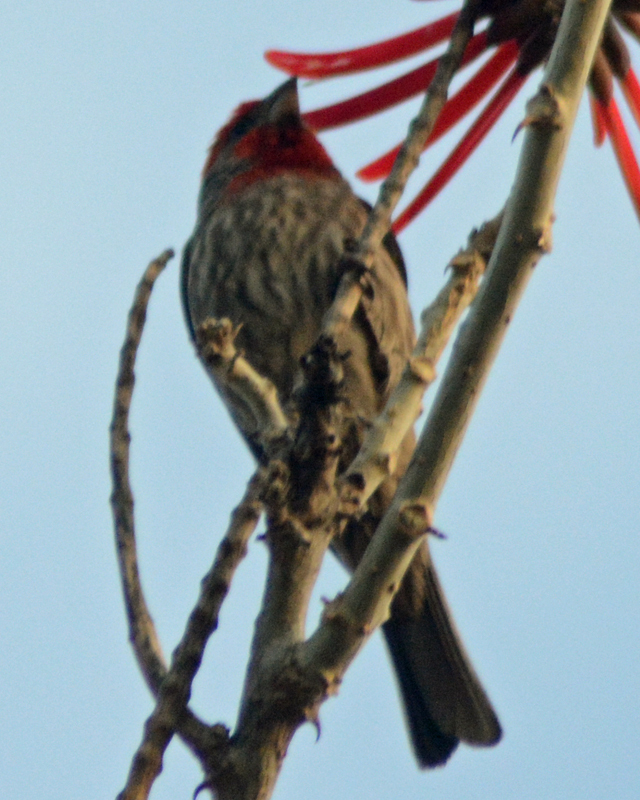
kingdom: Animalia
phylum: Chordata
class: Aves
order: Passeriformes
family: Fringillidae
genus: Haemorhous
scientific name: Haemorhous mexicanus
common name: House finch
